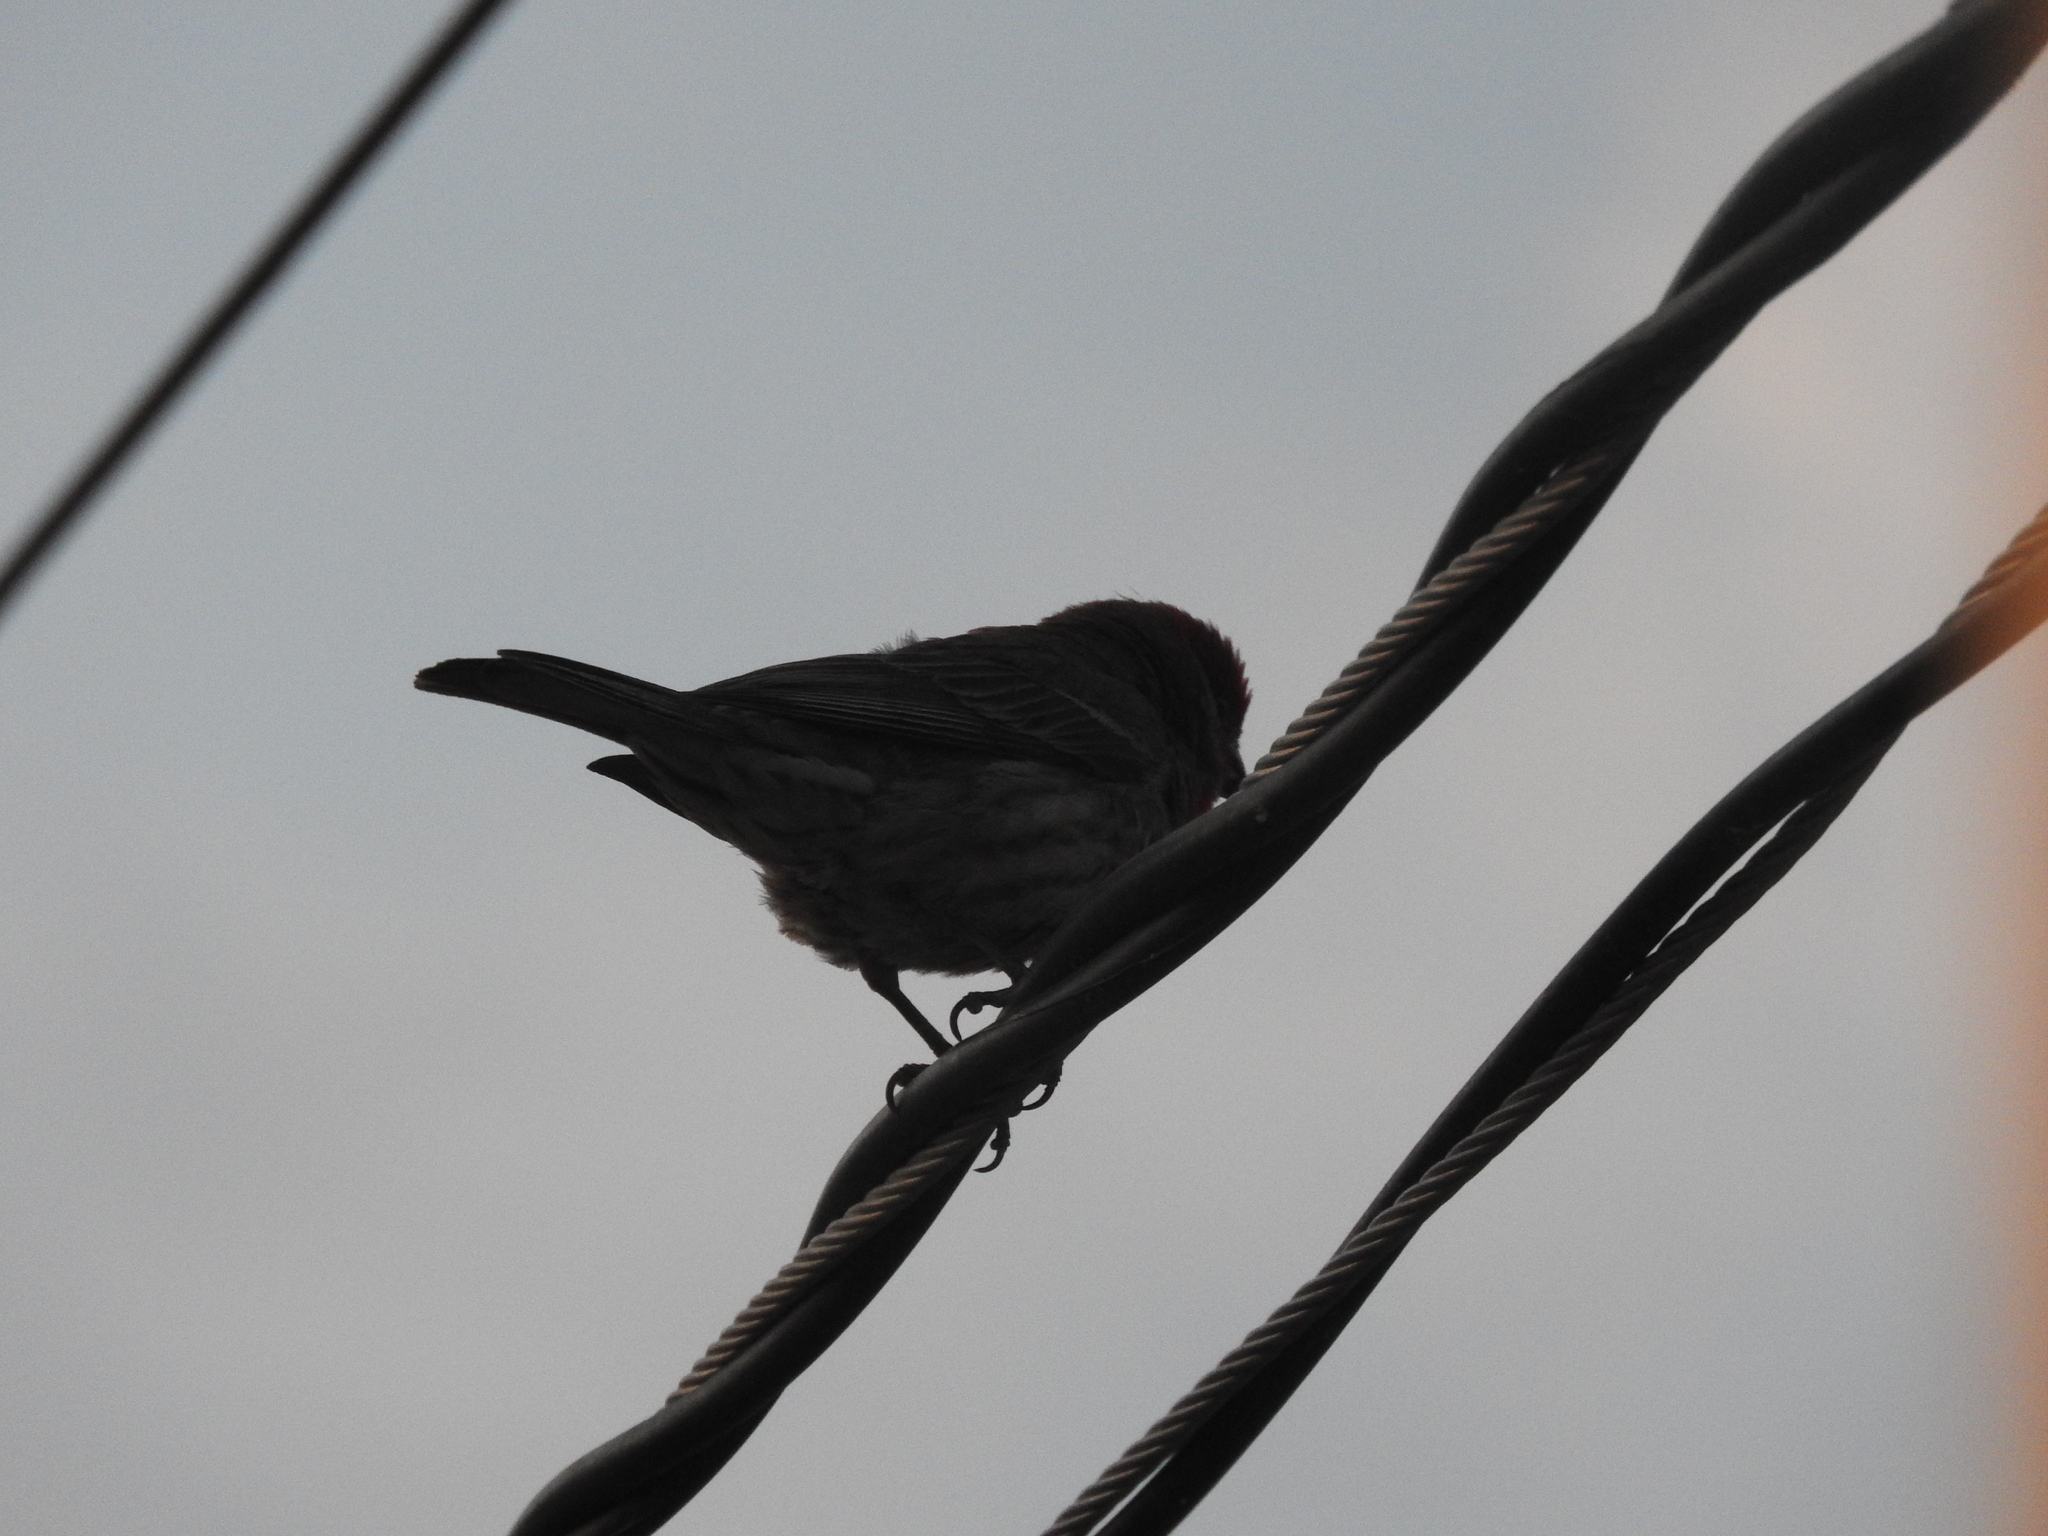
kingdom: Animalia
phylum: Chordata
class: Aves
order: Passeriformes
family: Fringillidae
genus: Haemorhous
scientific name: Haemorhous mexicanus
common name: House finch
